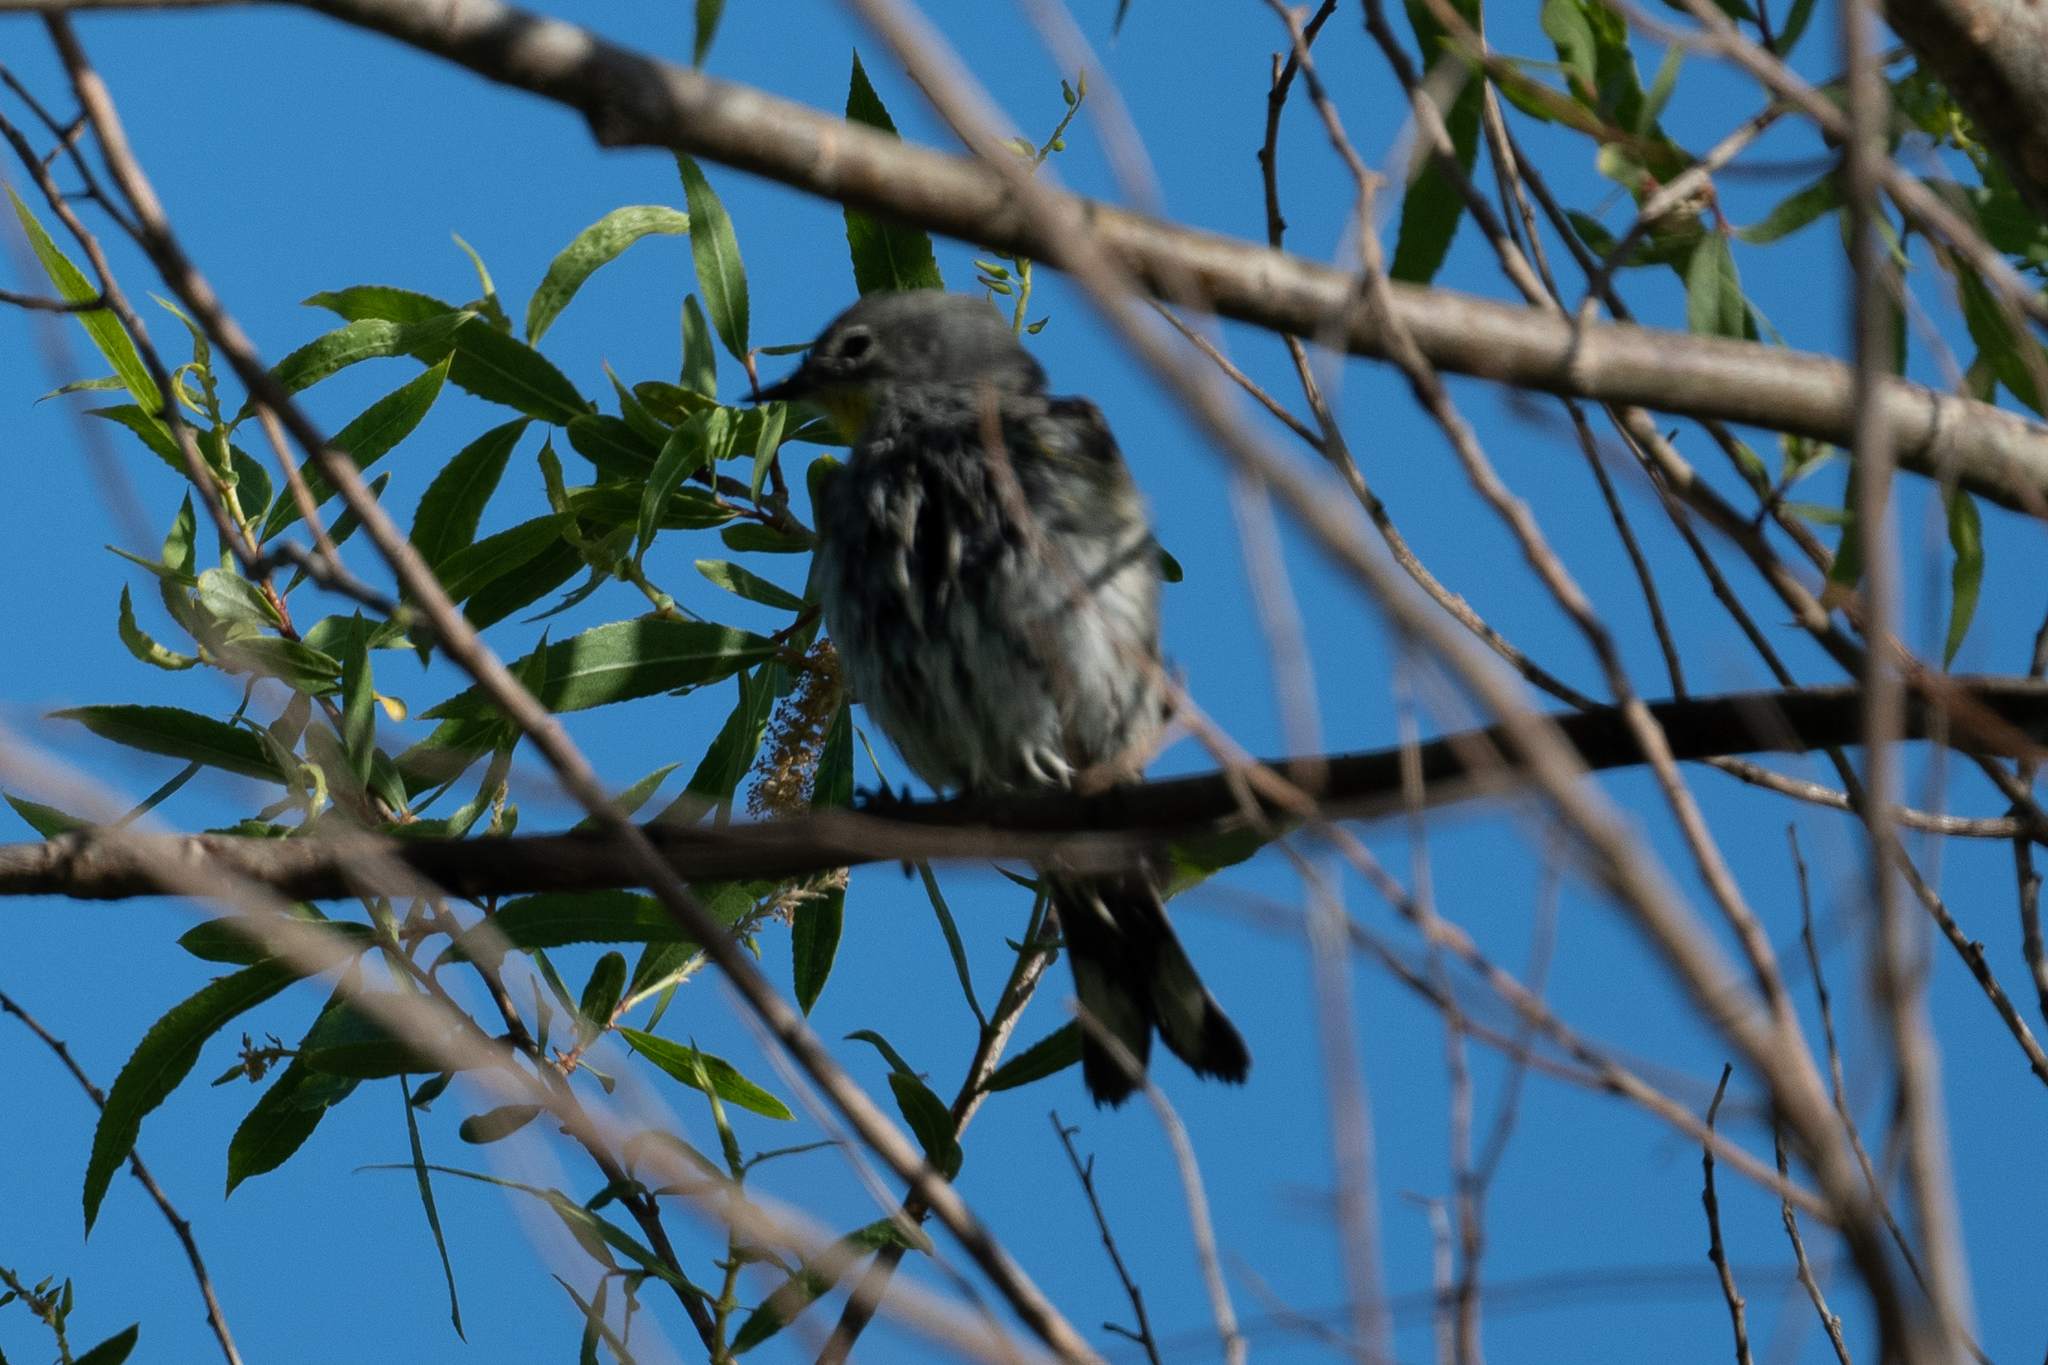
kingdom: Animalia
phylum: Chordata
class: Aves
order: Passeriformes
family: Parulidae
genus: Setophaga
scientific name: Setophaga coronata
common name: Myrtle warbler
